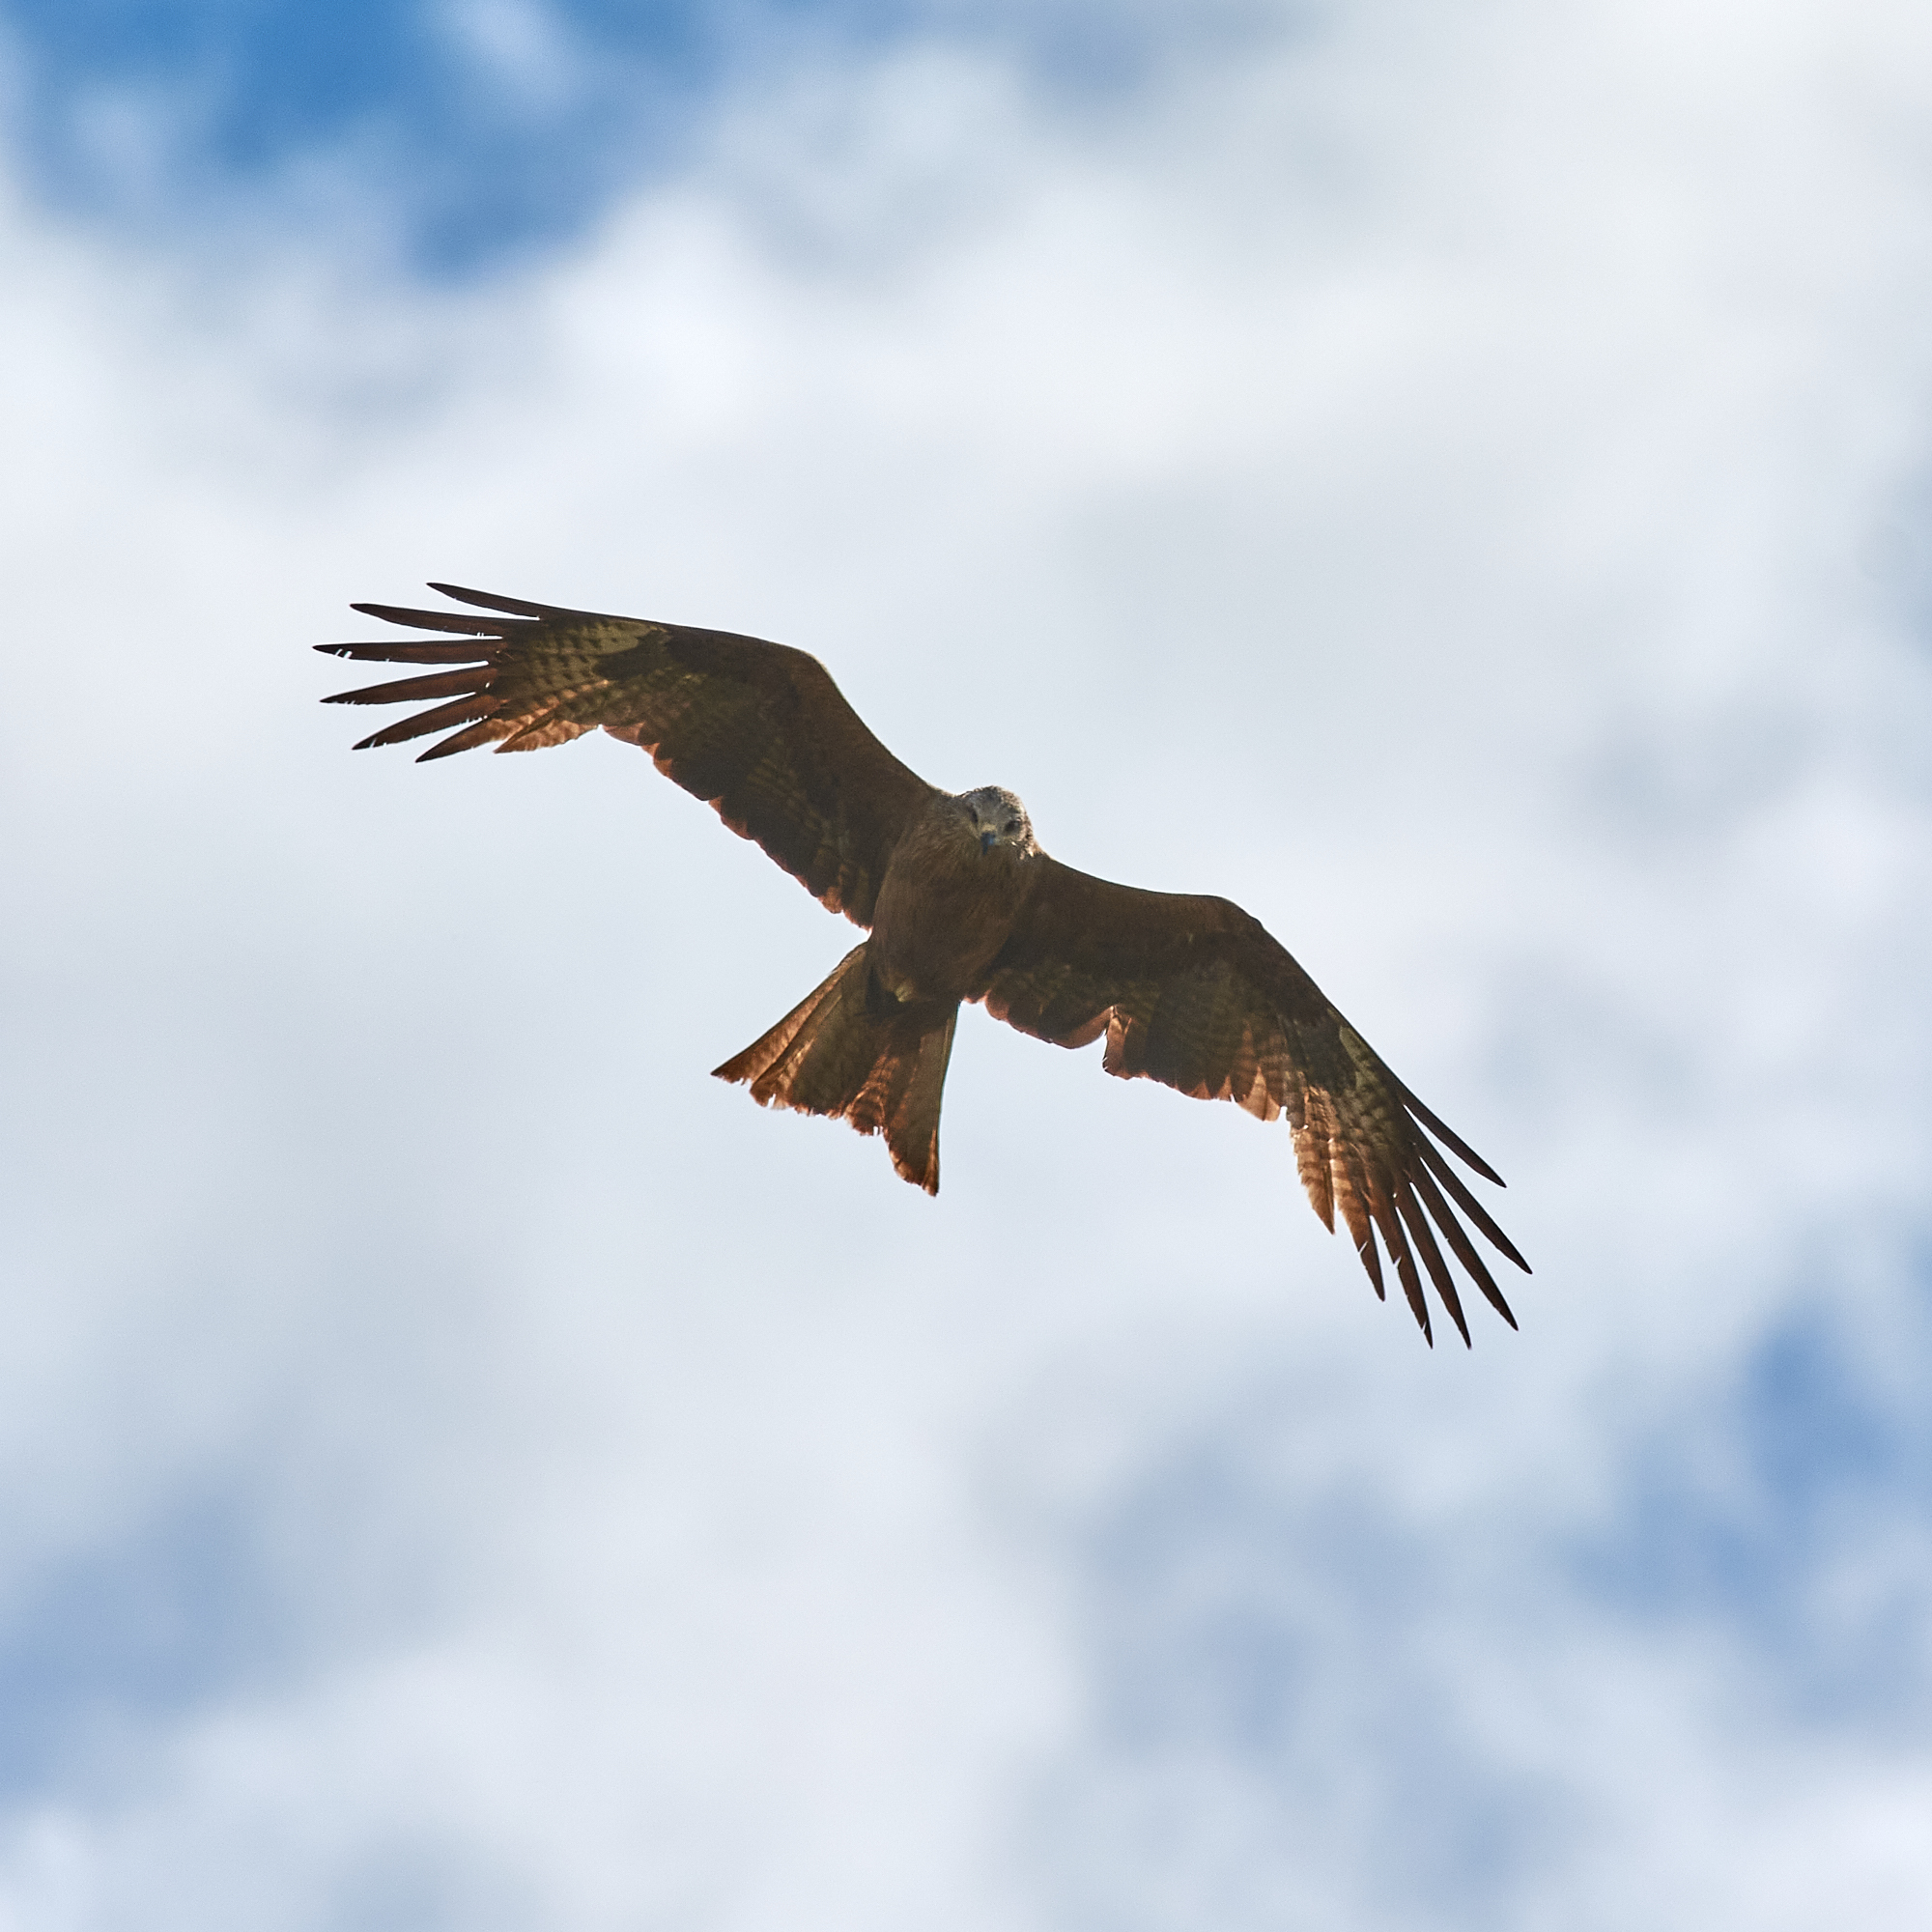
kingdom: Animalia
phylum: Chordata
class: Aves
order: Accipitriformes
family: Accipitridae
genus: Milvus
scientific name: Milvus migrans
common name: Black kite
